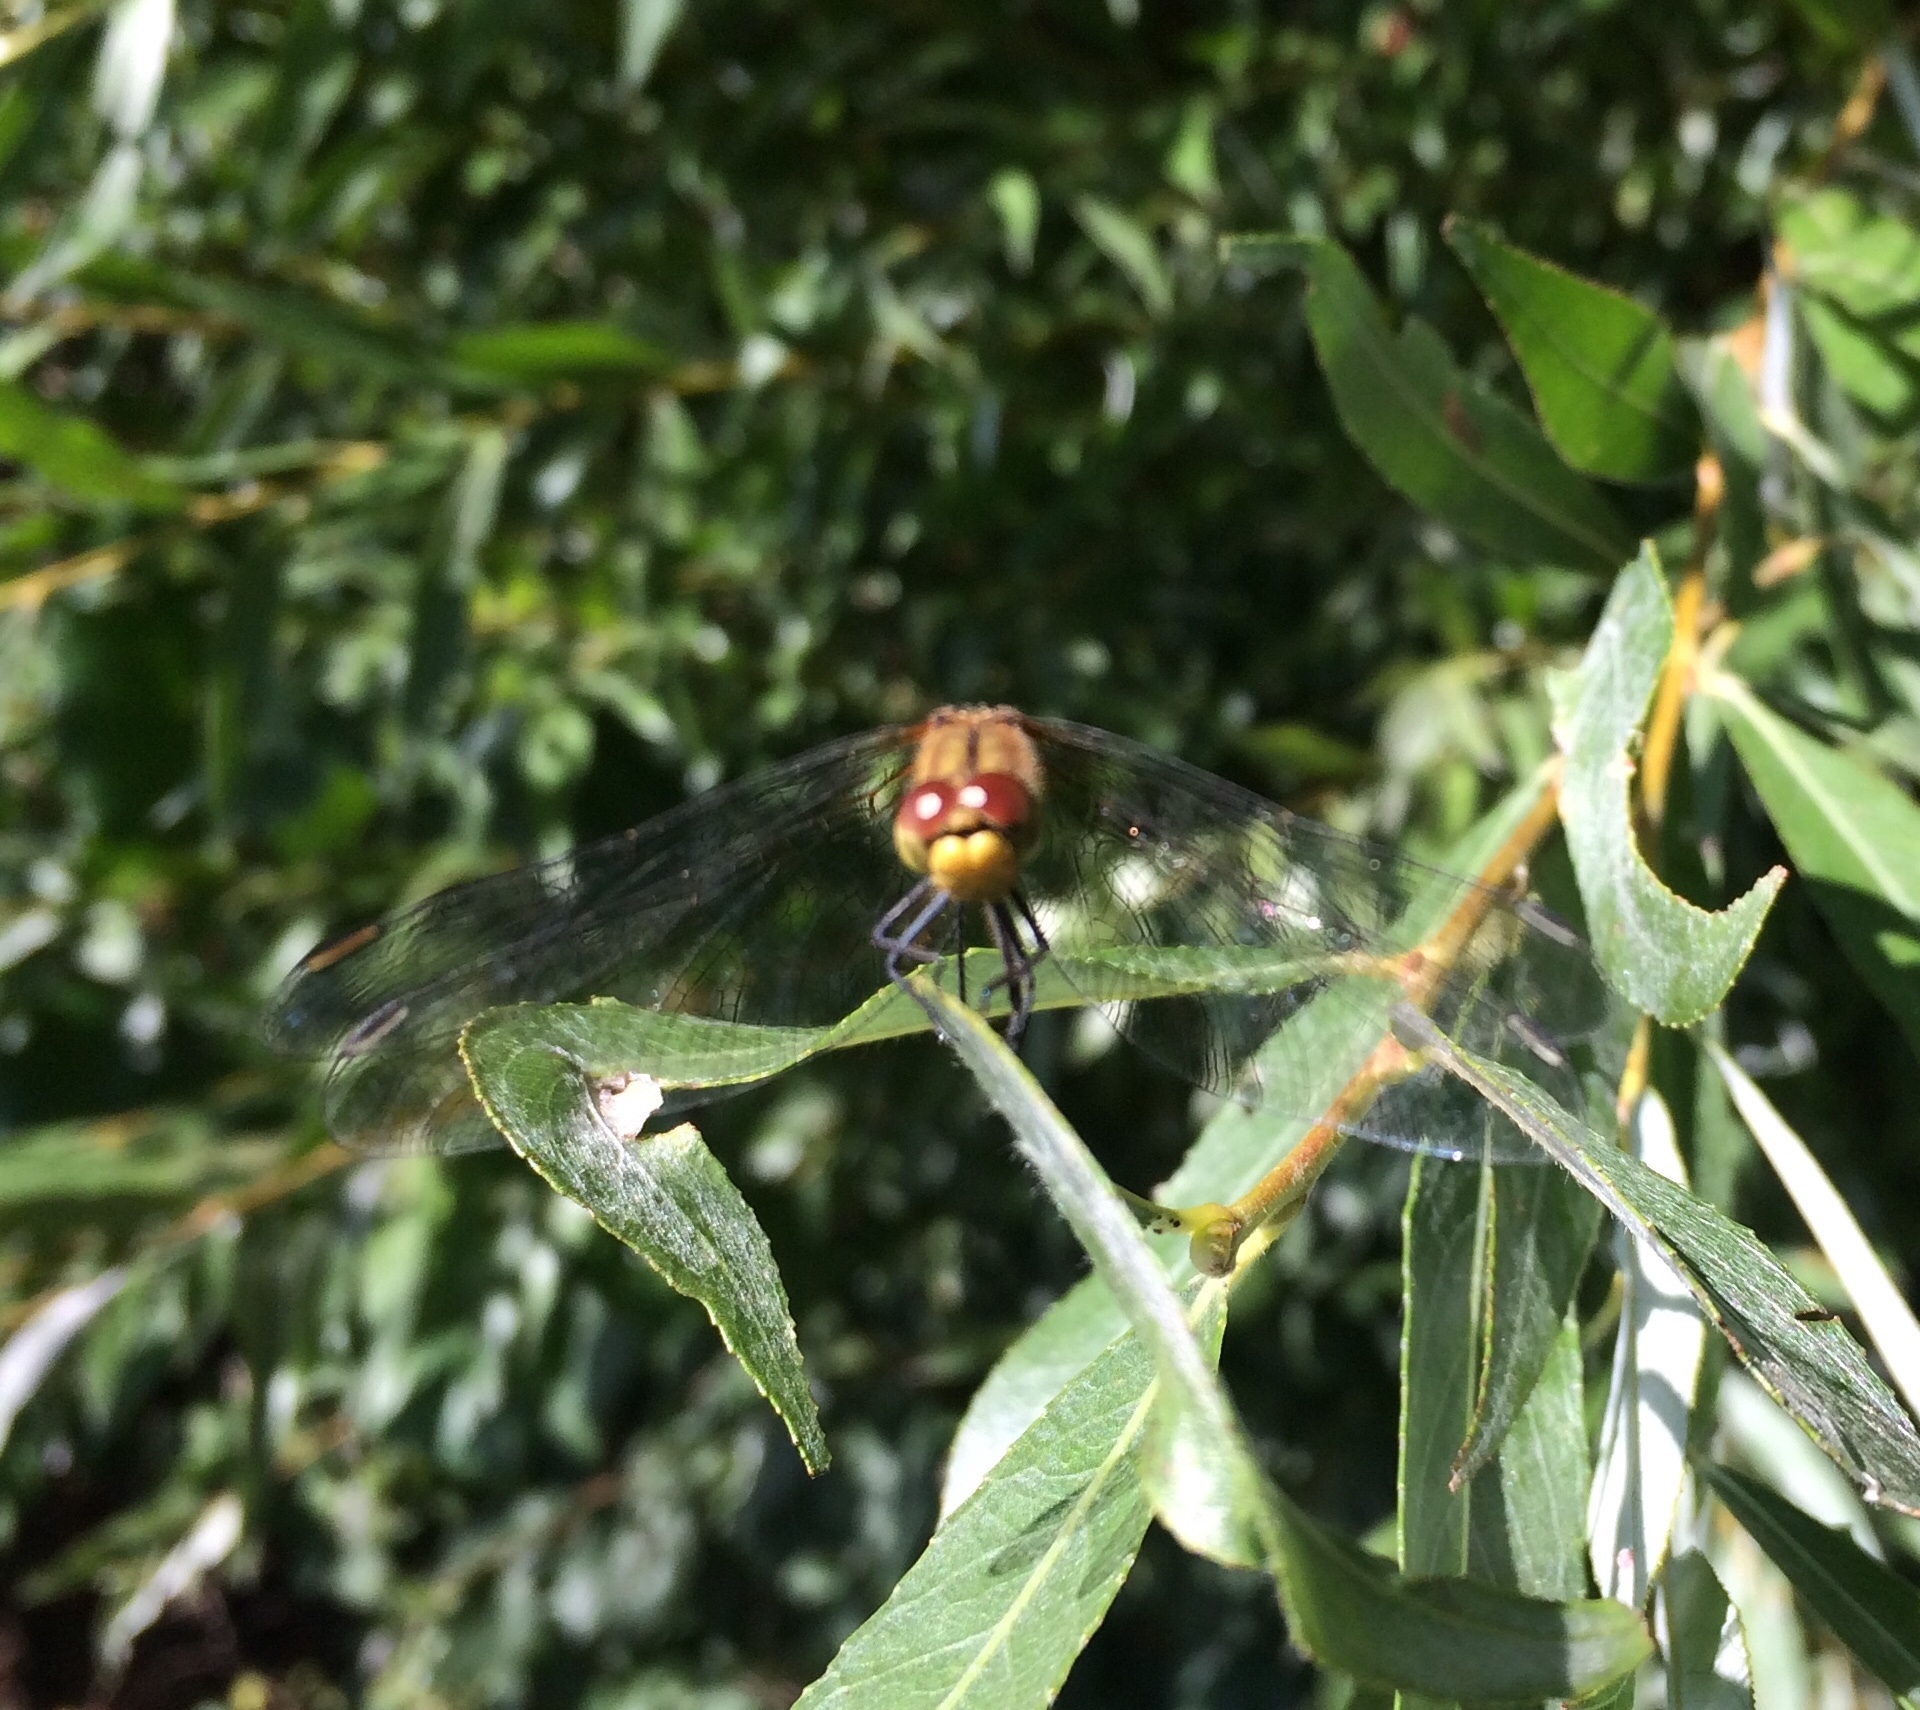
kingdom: Animalia
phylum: Arthropoda
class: Insecta
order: Odonata
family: Libellulidae
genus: Sympetrum
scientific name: Sympetrum sanguineum
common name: Ruddy darter
